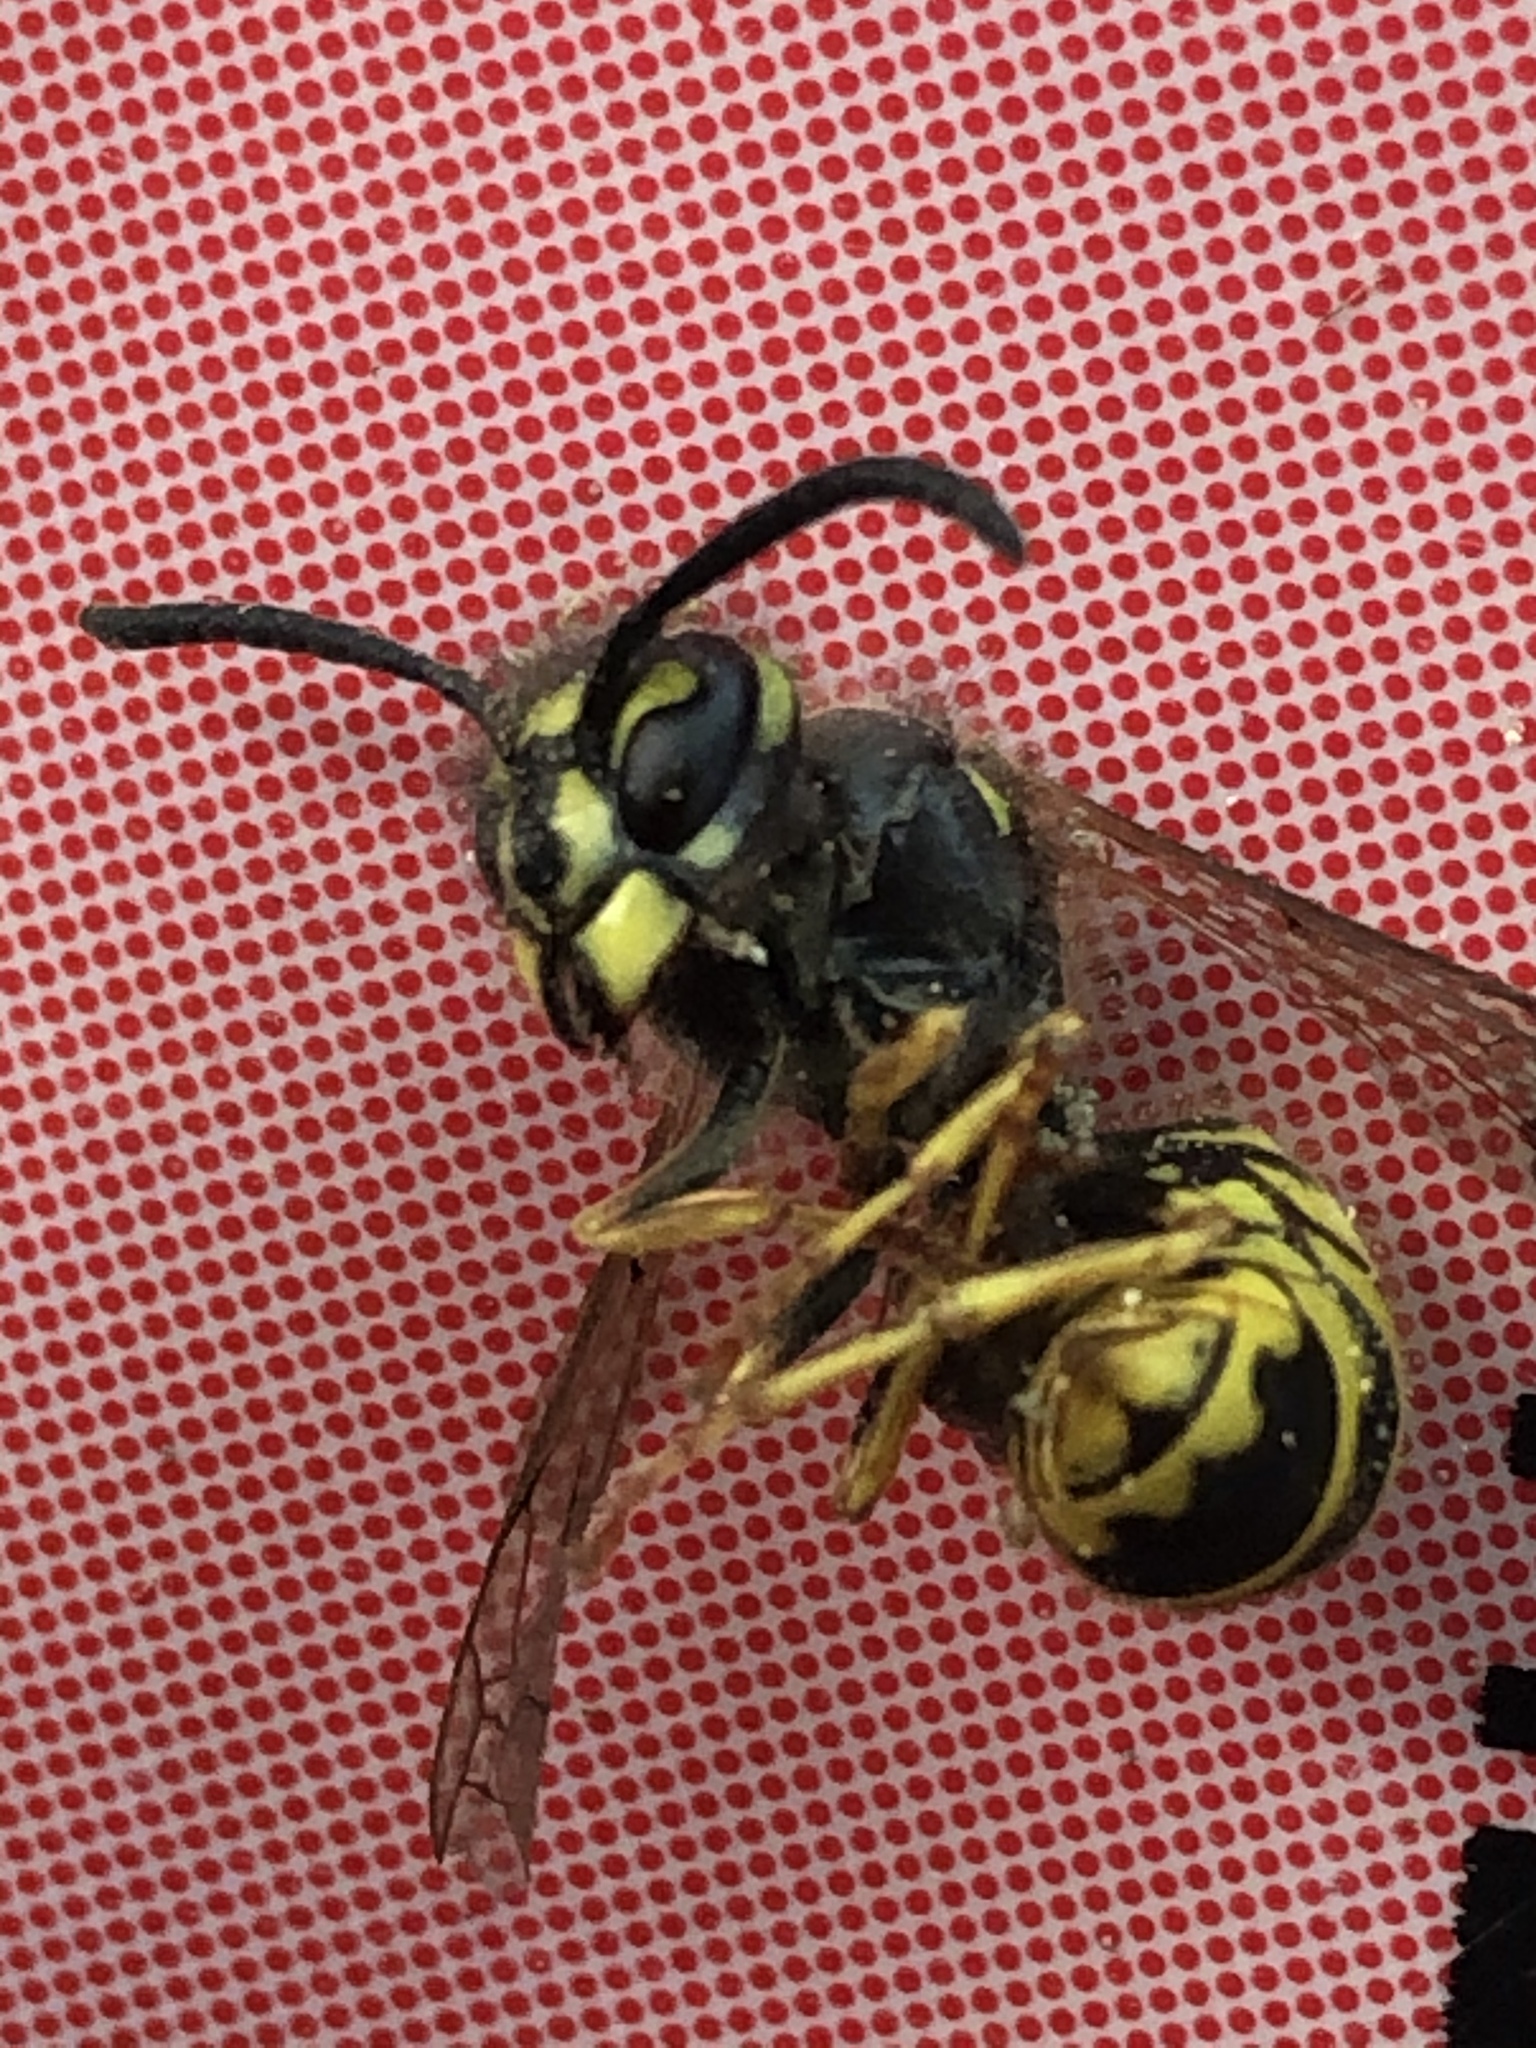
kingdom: Animalia
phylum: Arthropoda
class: Insecta
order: Hymenoptera
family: Vespidae
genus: Vespula
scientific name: Vespula vulgaris
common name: Common wasp
